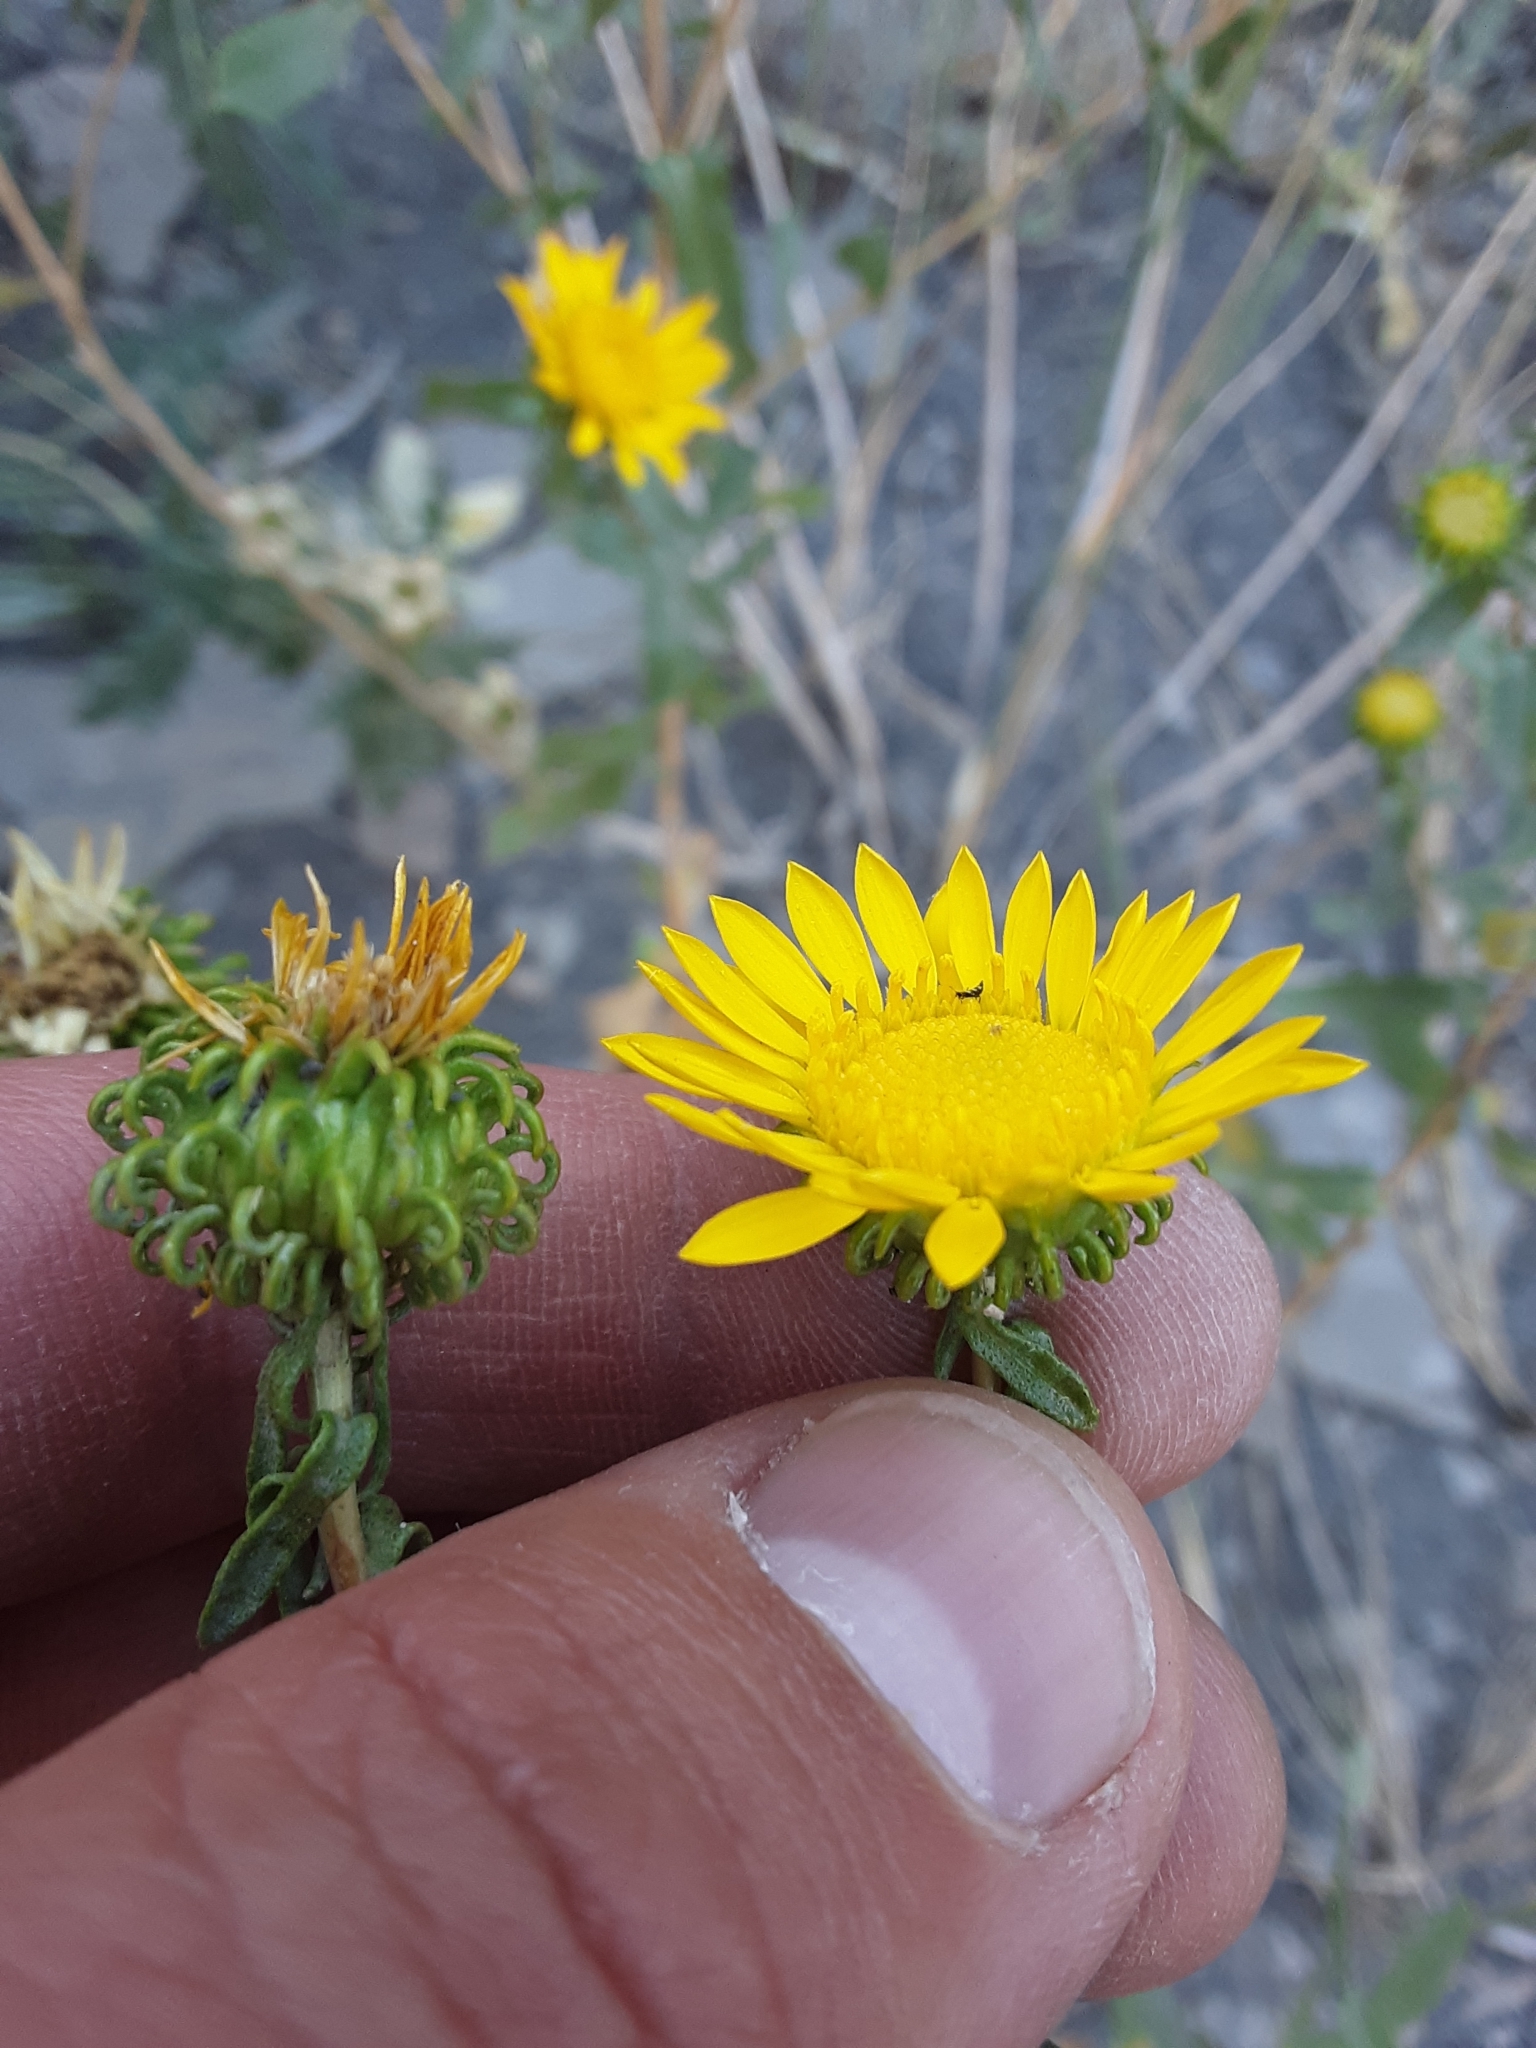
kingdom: Plantae
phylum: Tracheophyta
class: Magnoliopsida
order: Asterales
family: Asteraceae
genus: Grindelia
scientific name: Grindelia squarrosa
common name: Curly-cup gumweed
